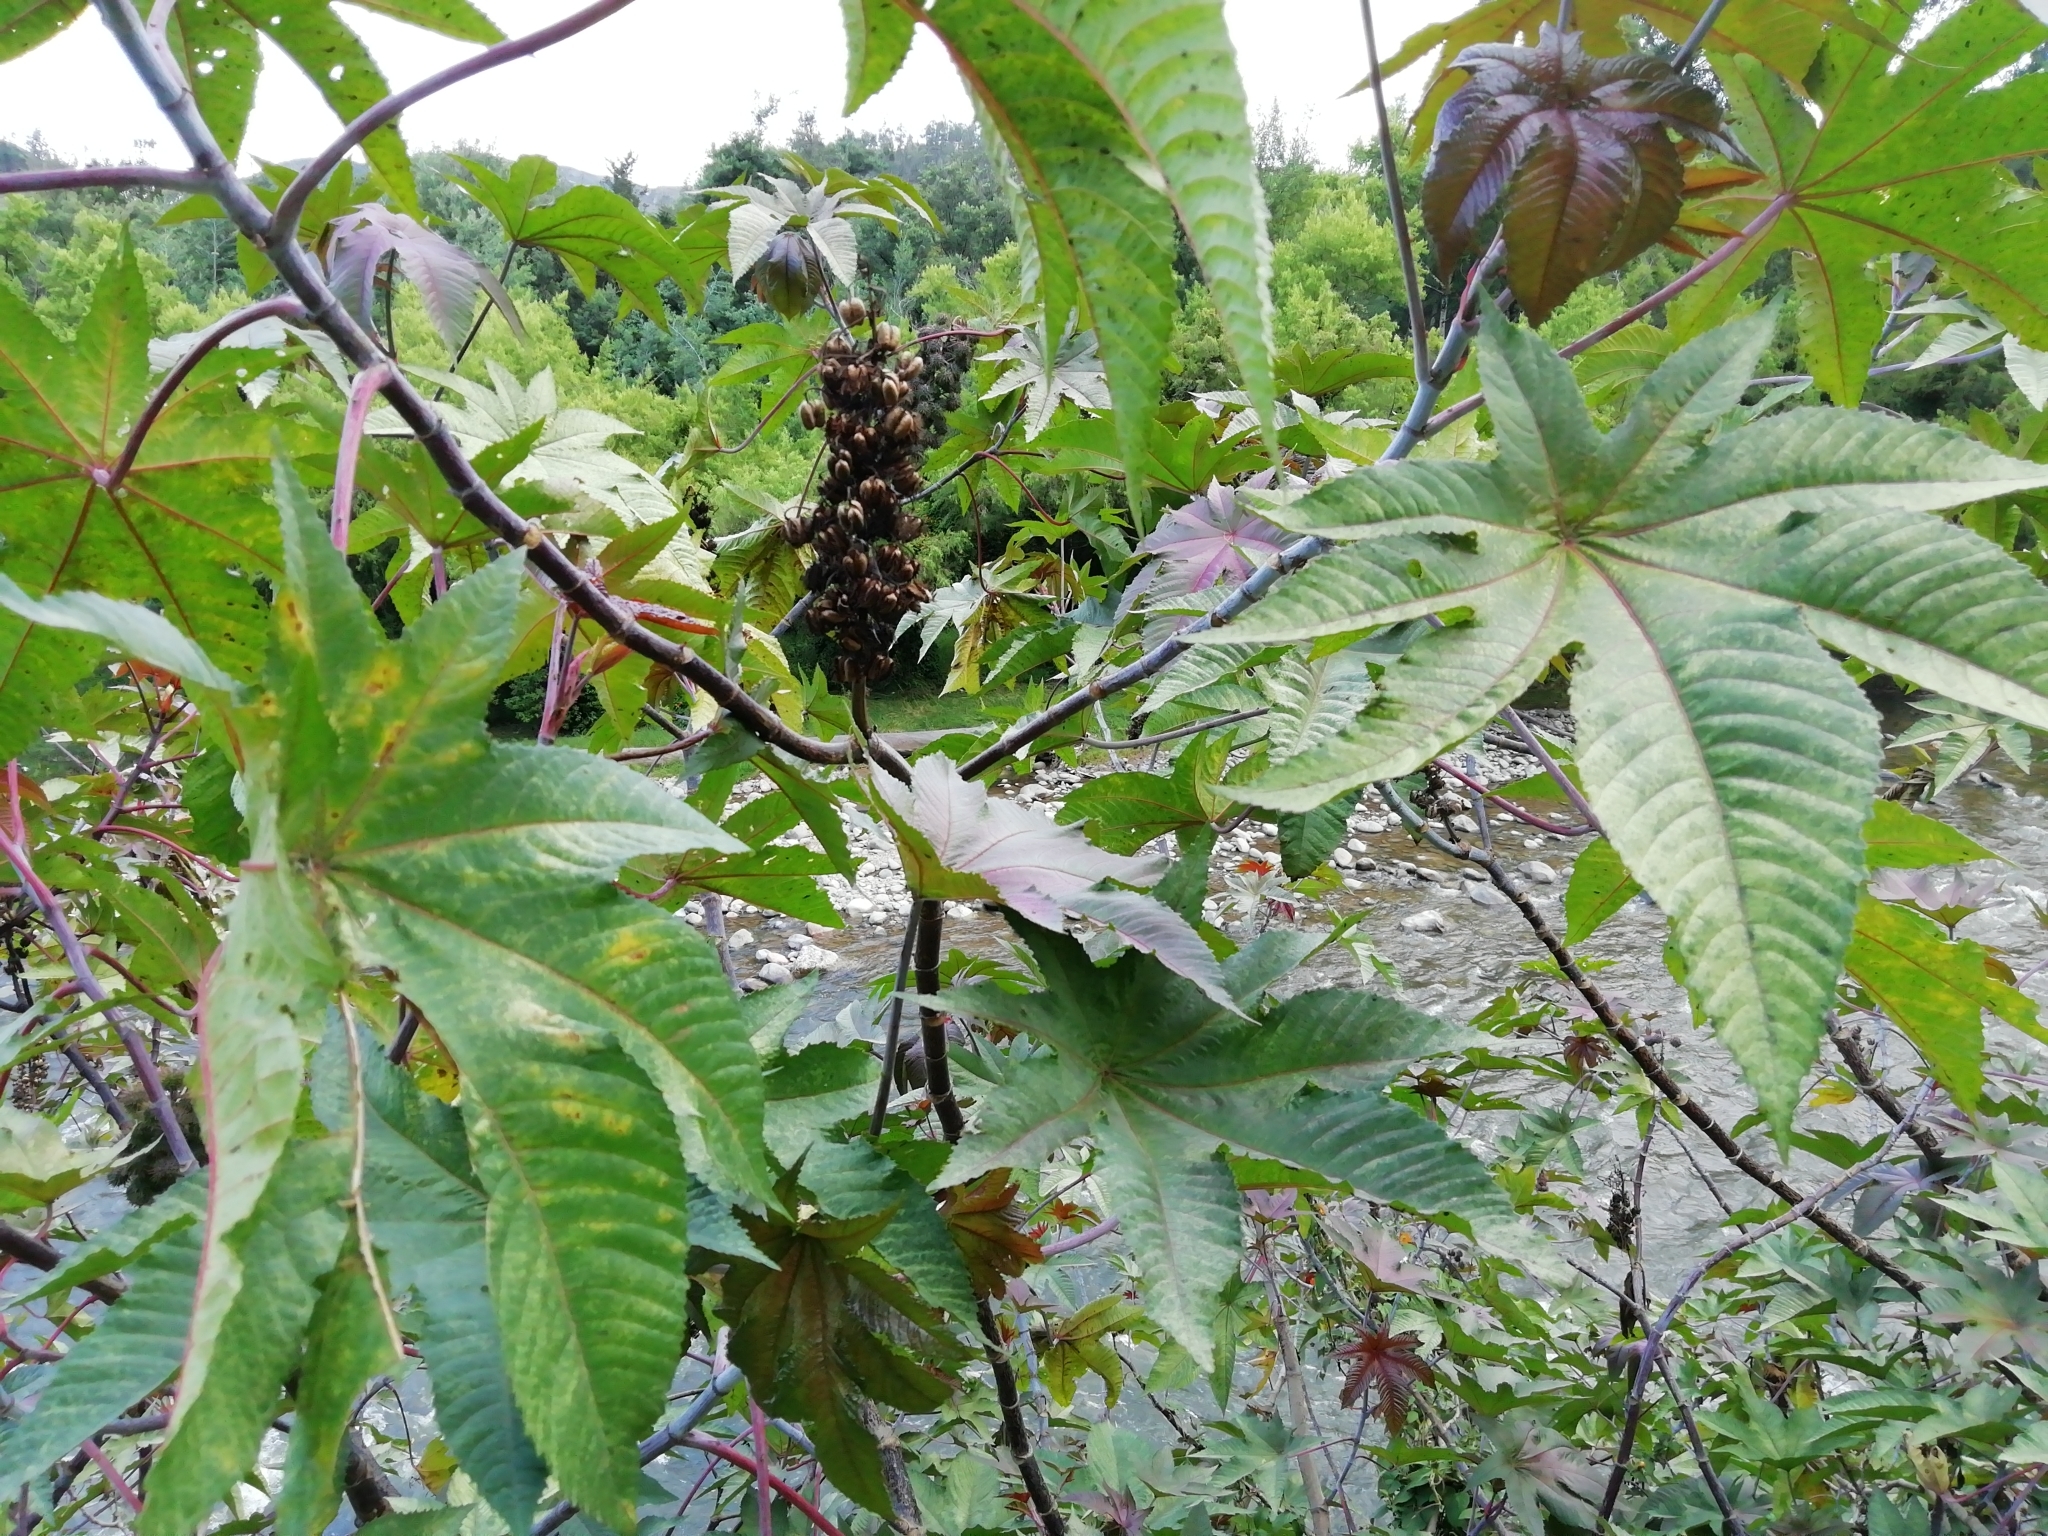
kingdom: Plantae
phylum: Tracheophyta
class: Magnoliopsida
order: Malpighiales
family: Euphorbiaceae
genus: Ricinus
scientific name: Ricinus communis
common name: Castor-oil-plant
